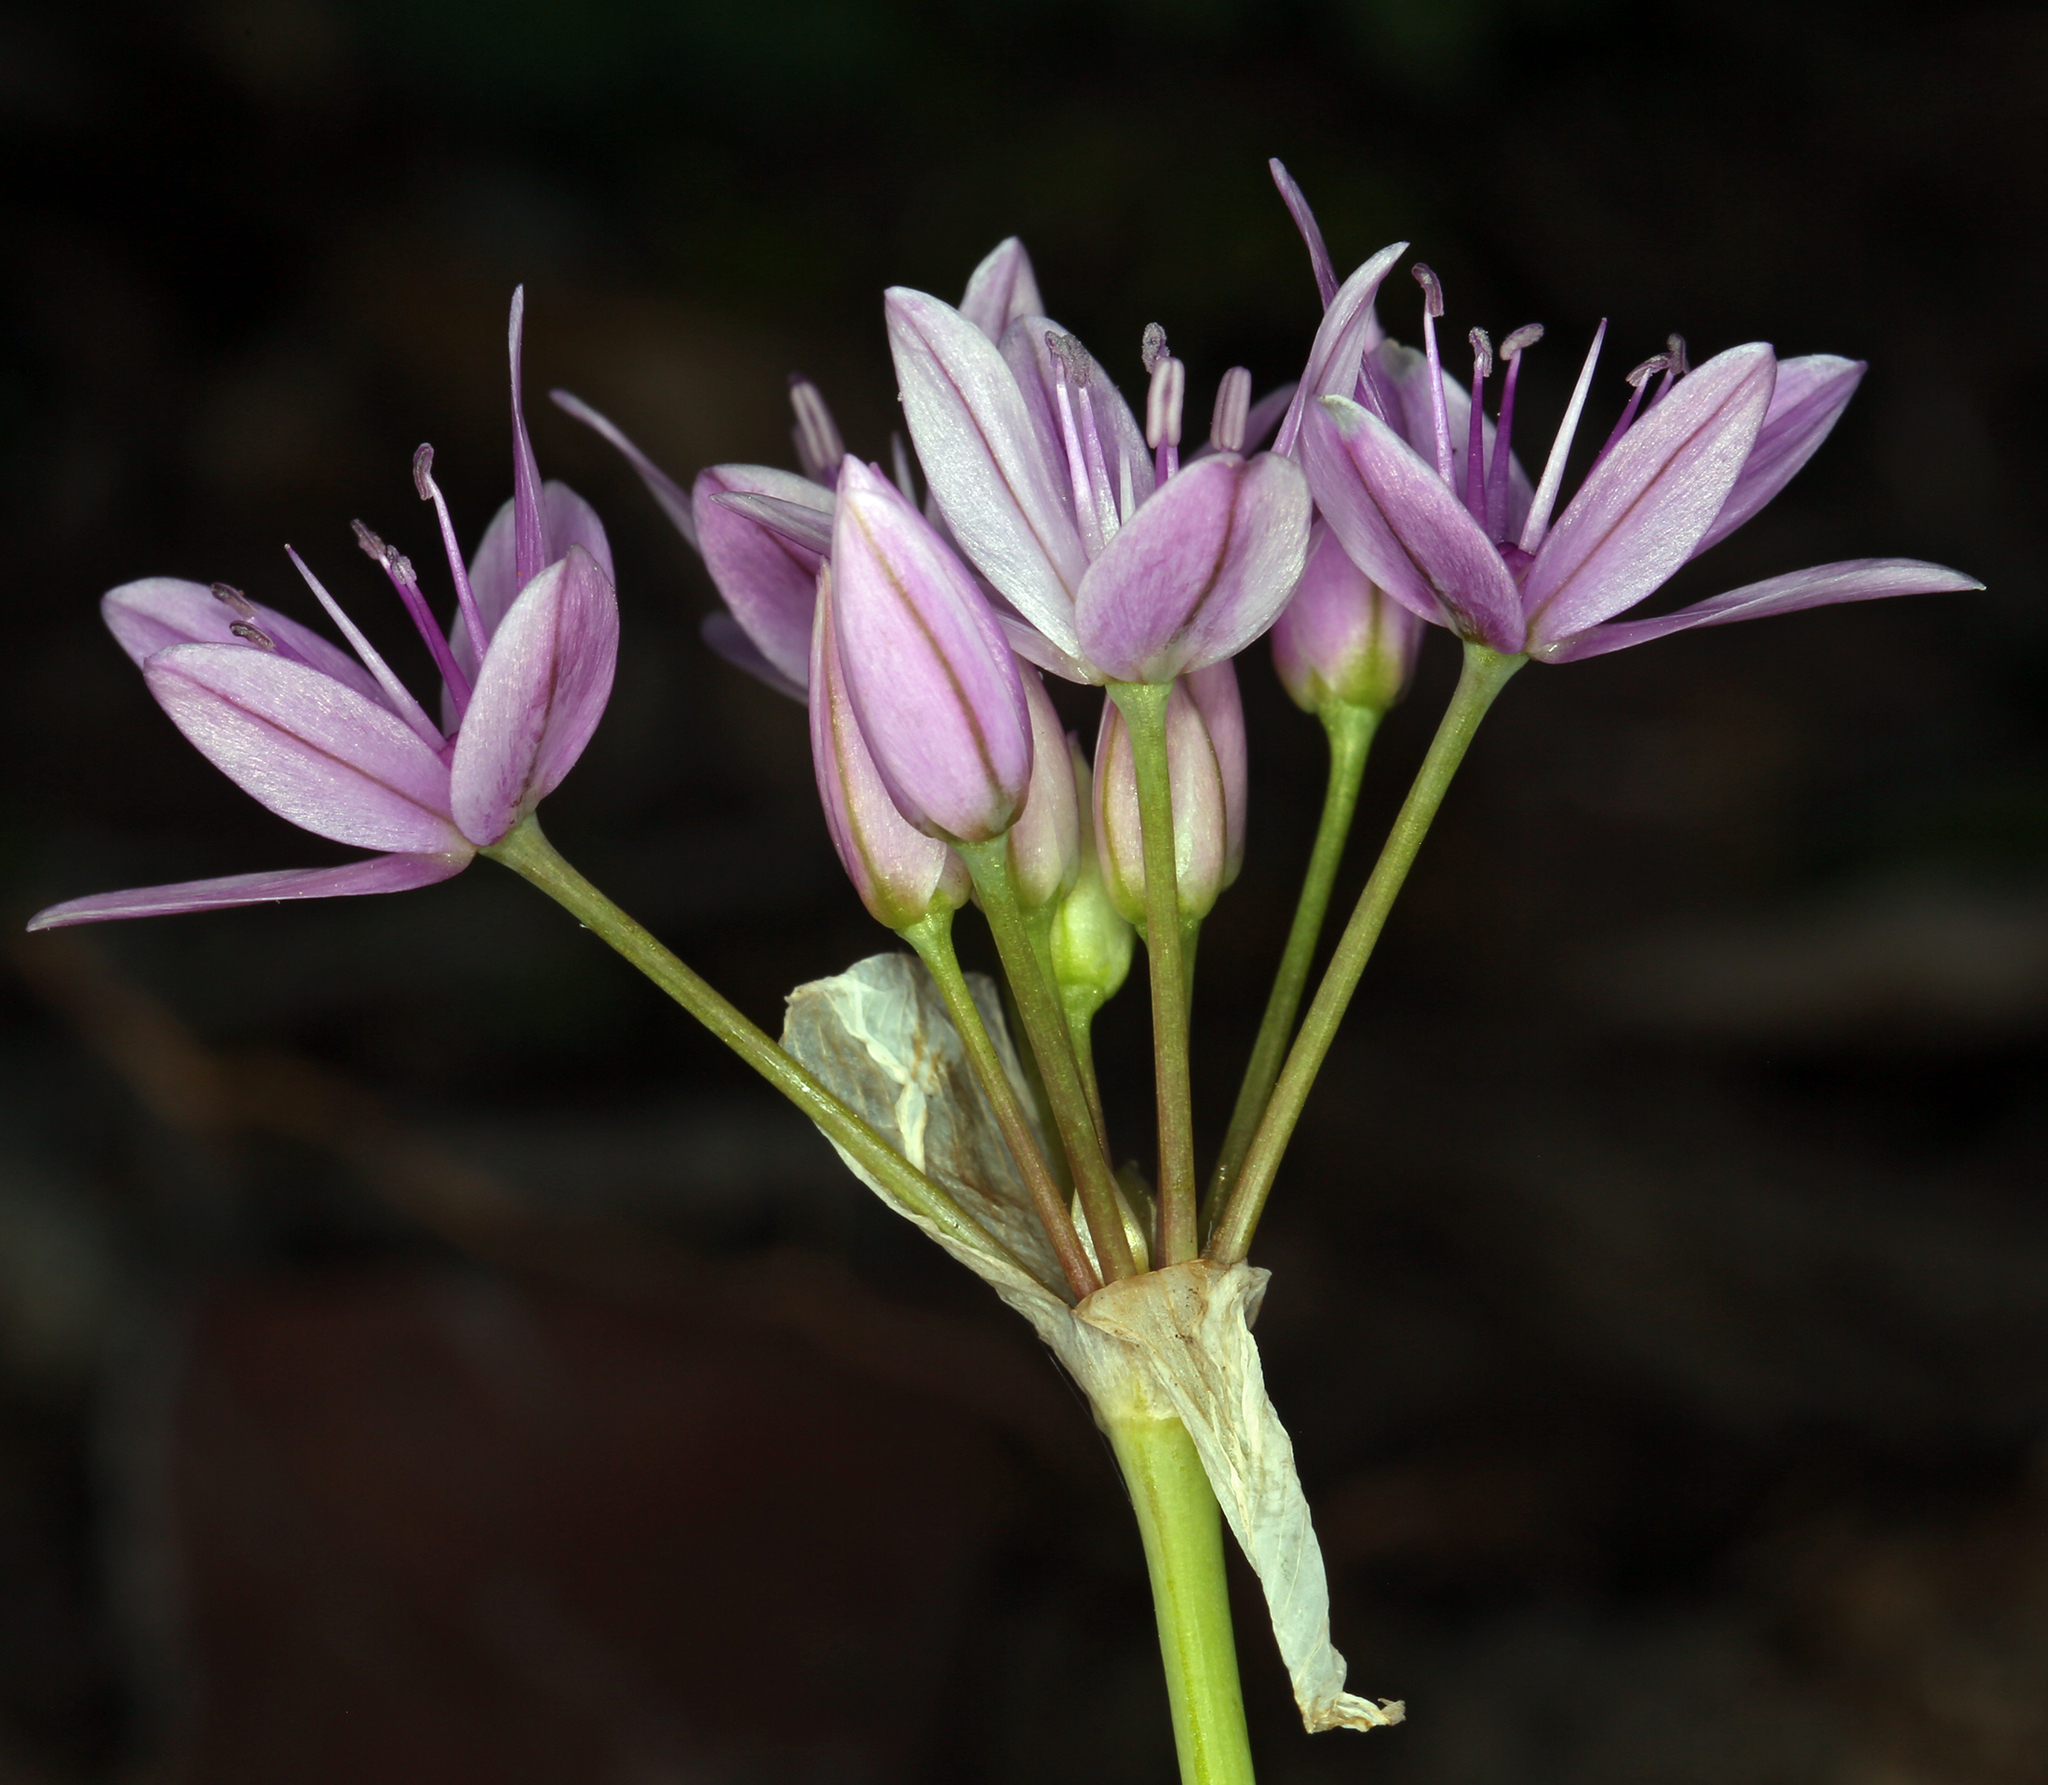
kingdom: Plantae
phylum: Tracheophyta
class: Liliopsida
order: Asparagales
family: Amaryllidaceae
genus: Allium
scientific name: Allium unifolium
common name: American garlic
